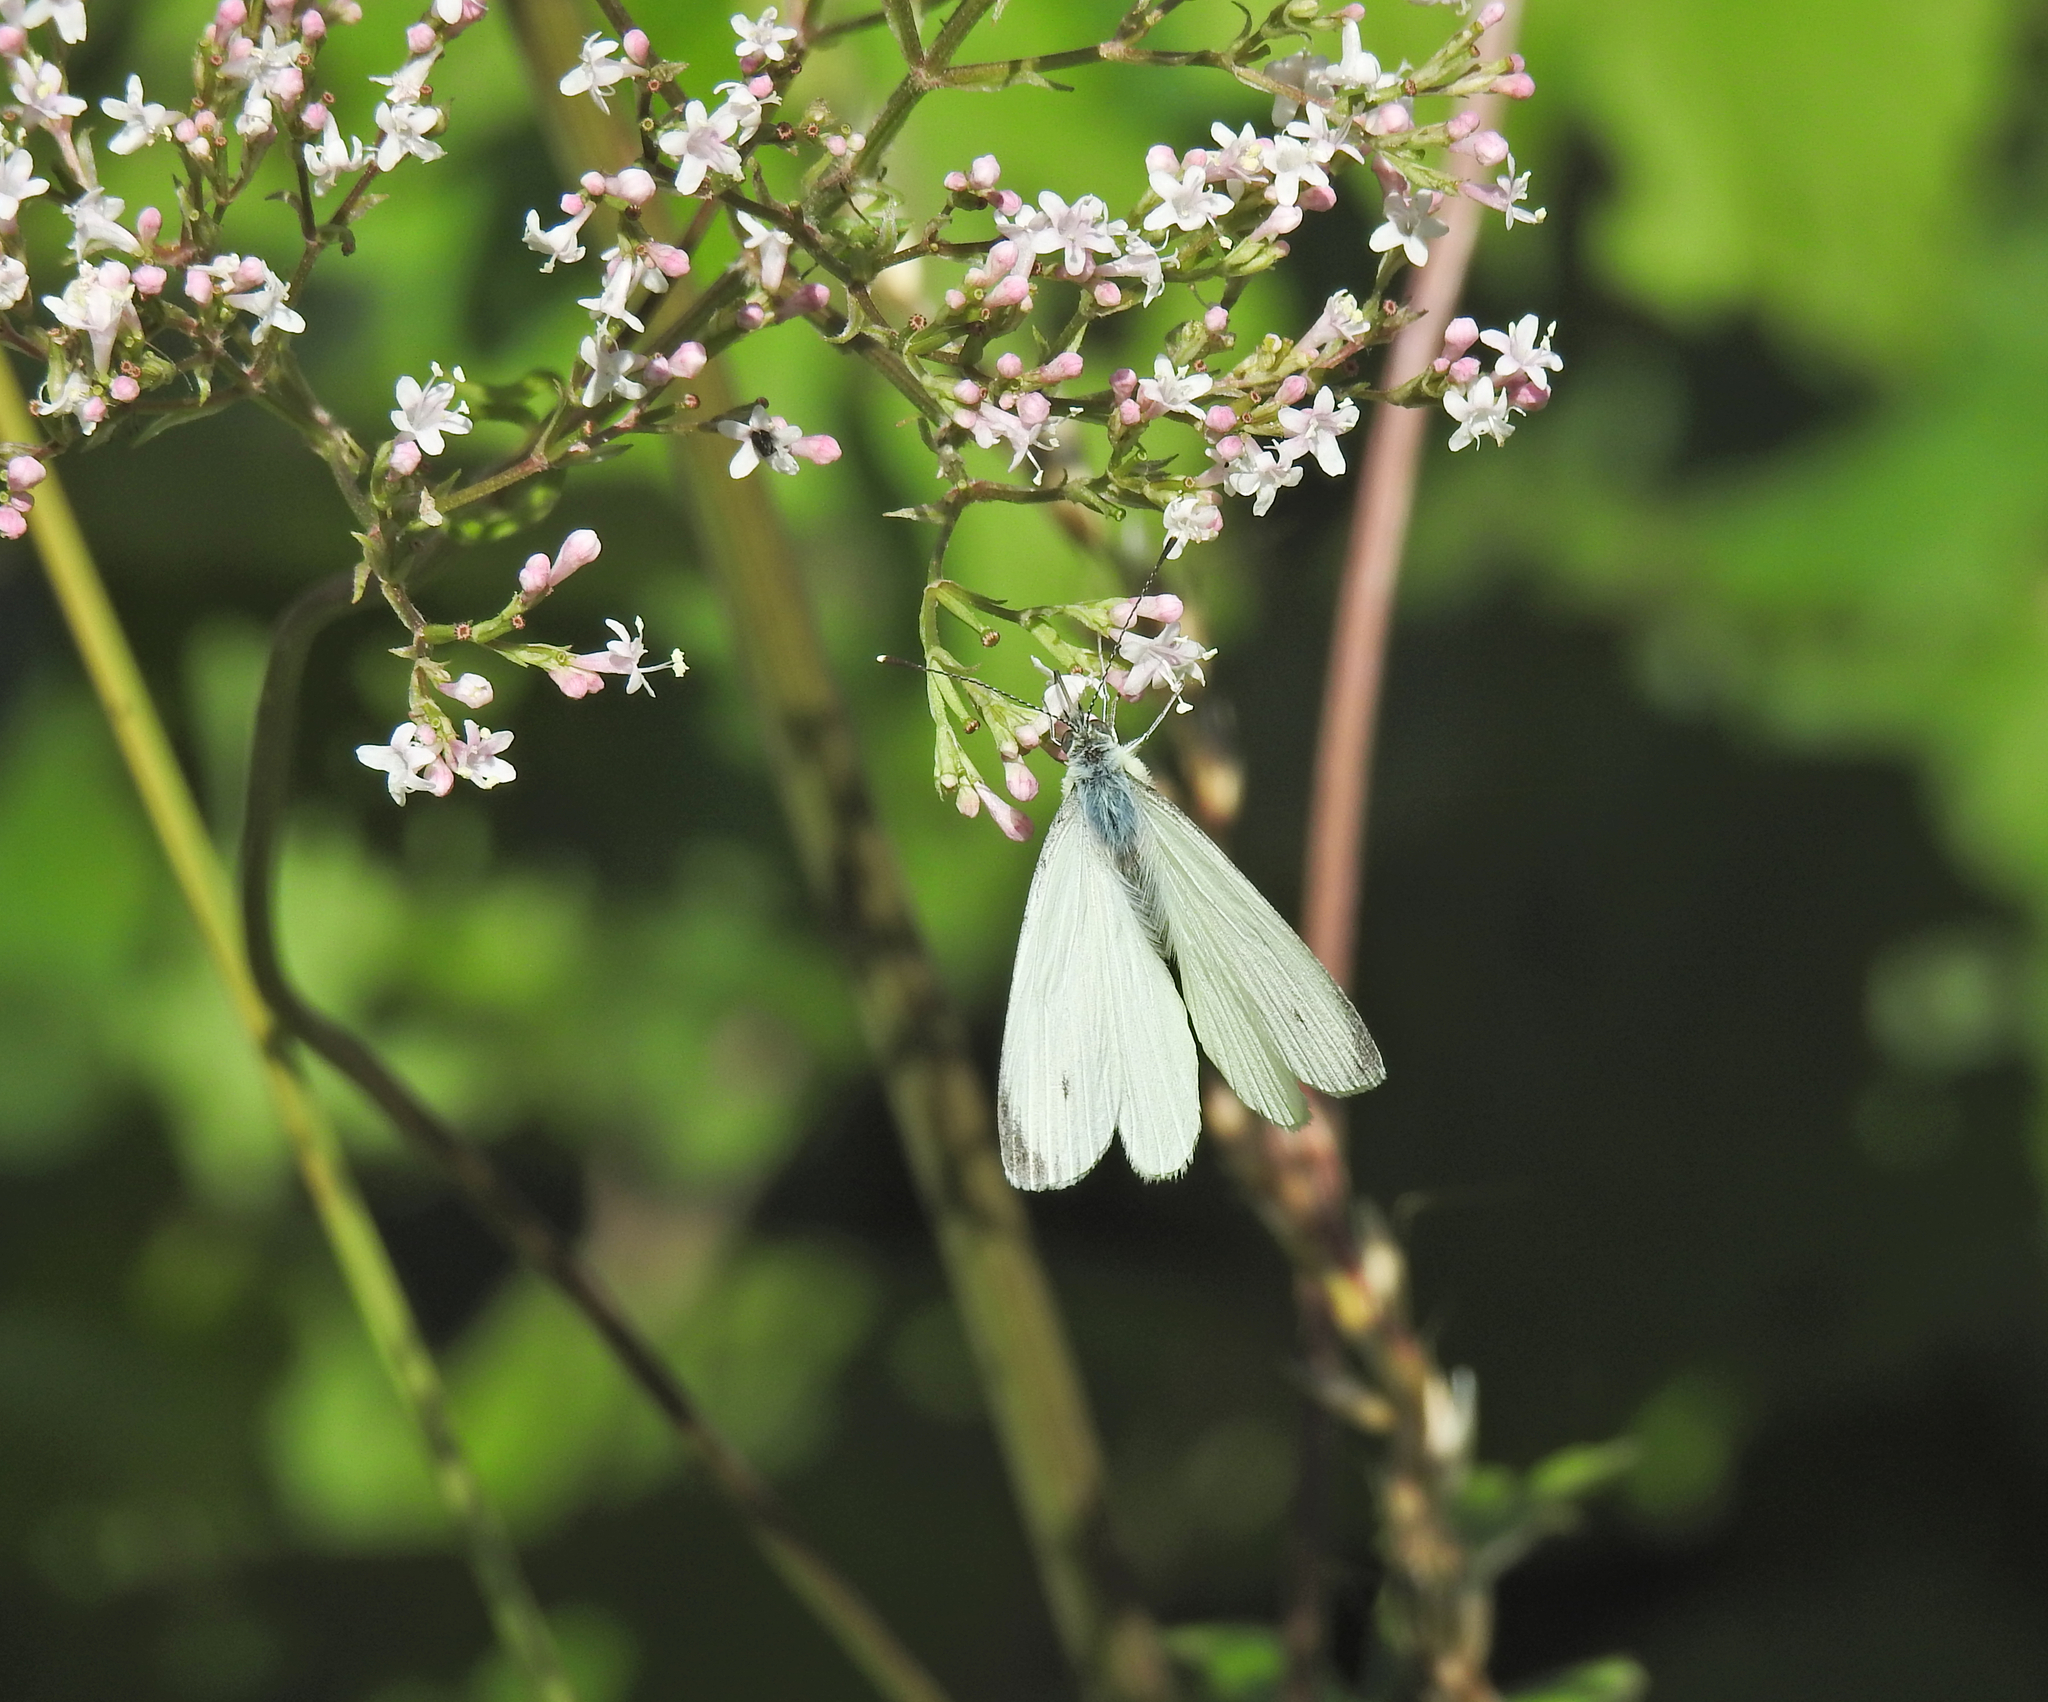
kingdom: Animalia
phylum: Arthropoda
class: Insecta
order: Lepidoptera
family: Pieridae
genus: Pieris
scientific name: Pieris napi
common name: Green-veined white
